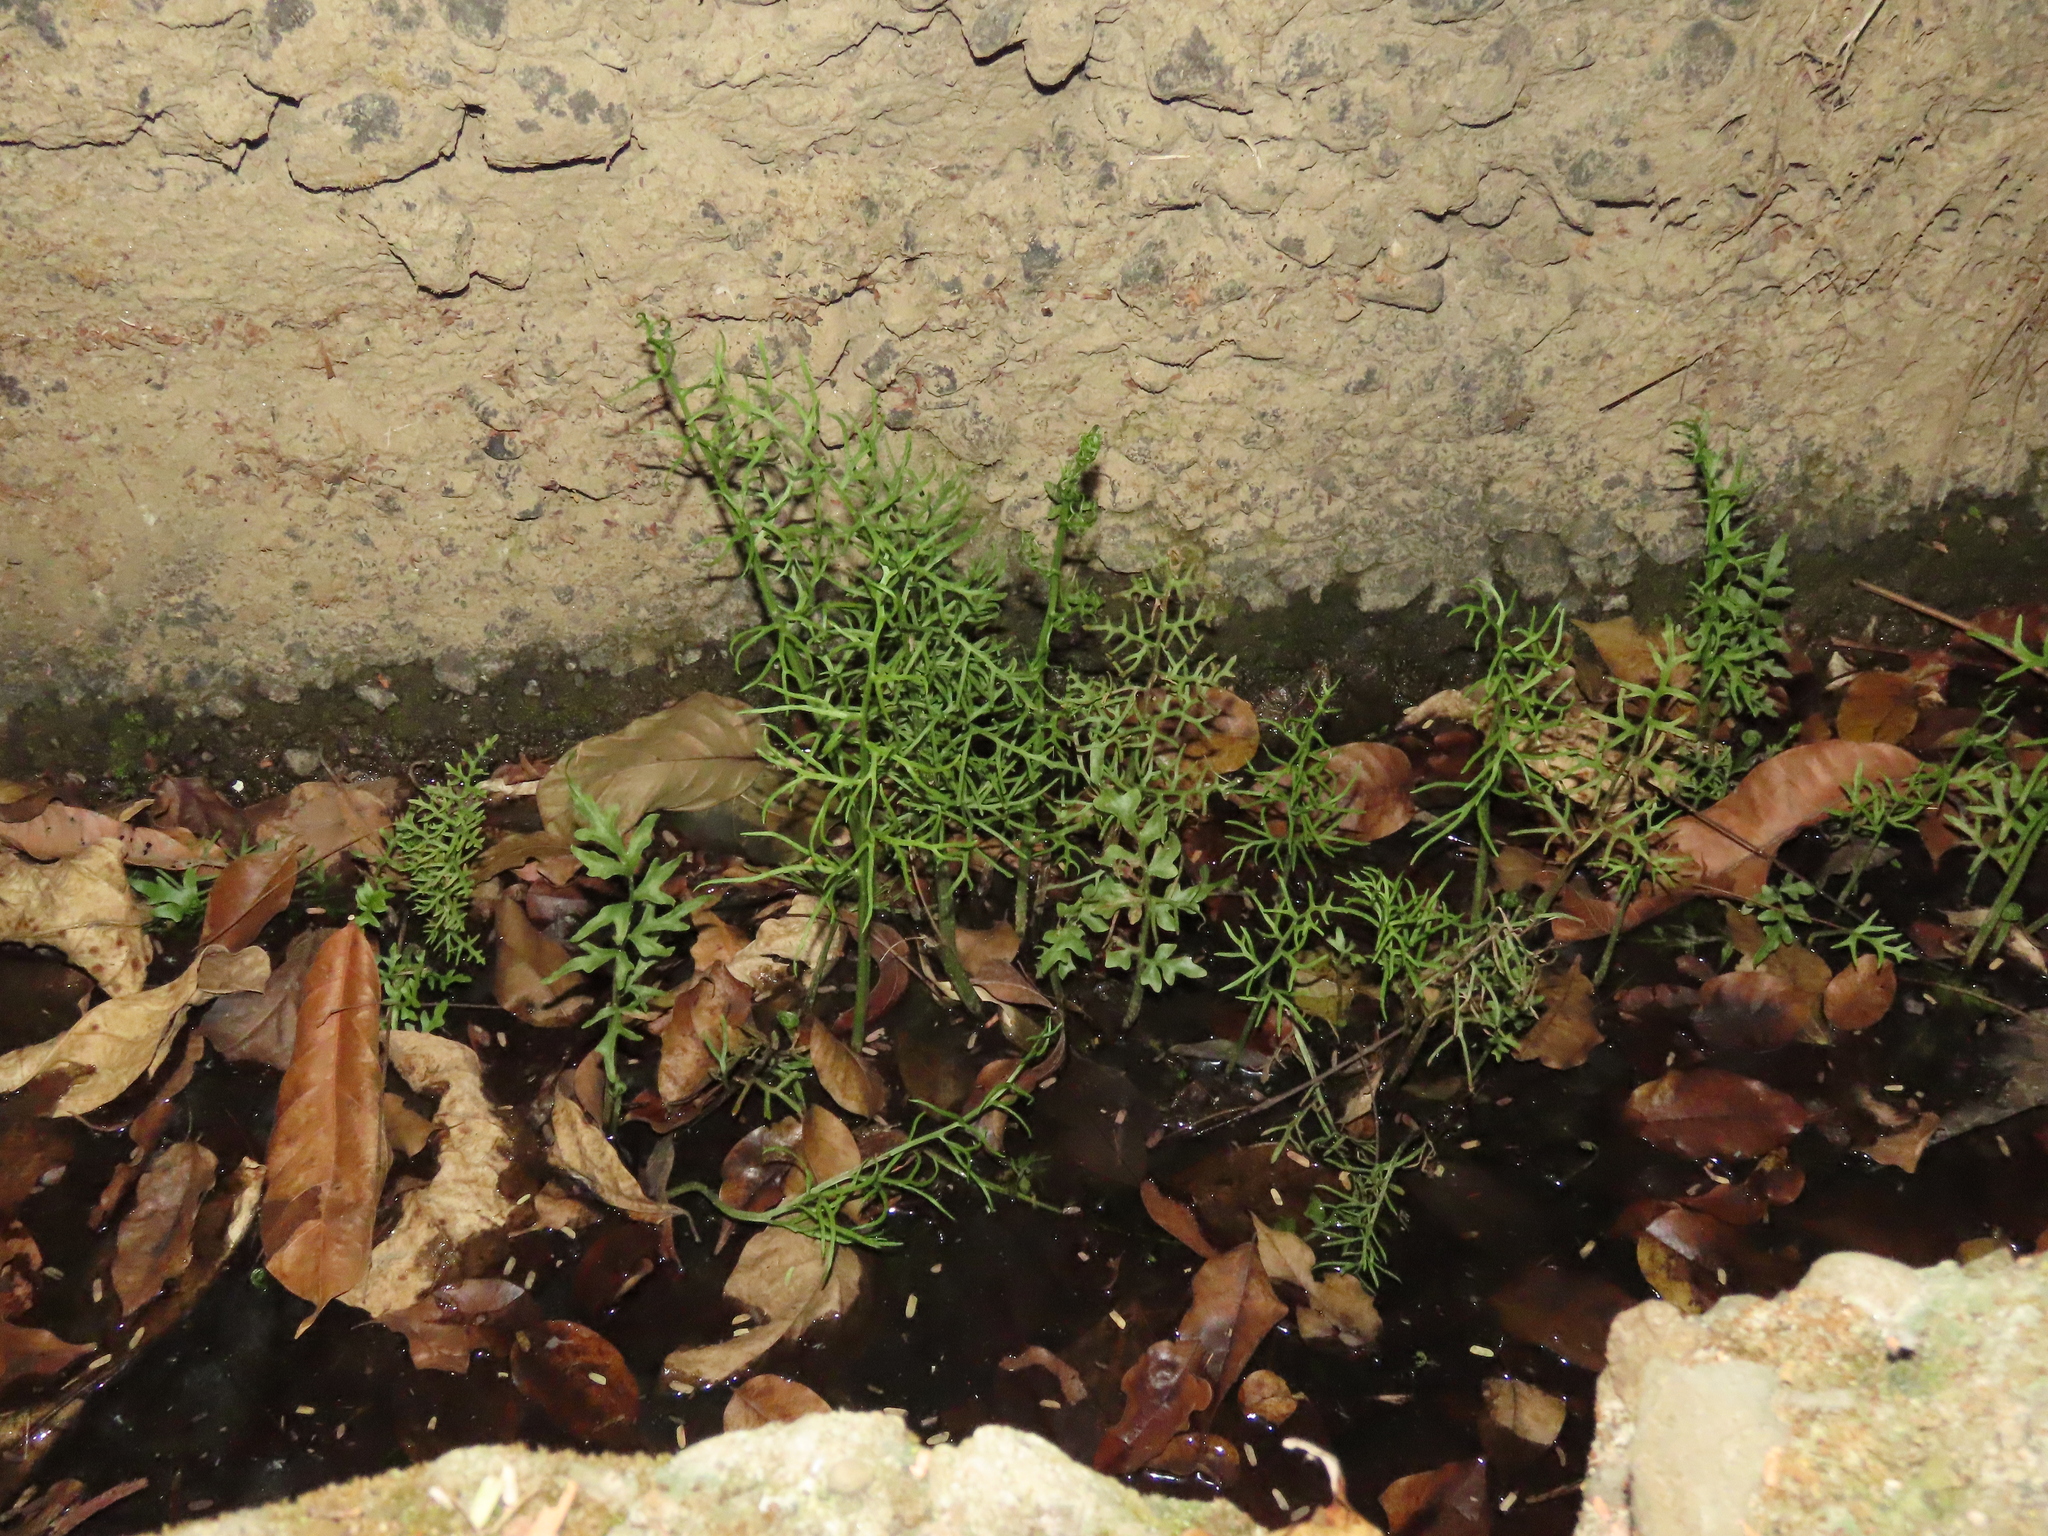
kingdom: Plantae
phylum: Tracheophyta
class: Polypodiopsida
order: Polypodiales
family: Pteridaceae
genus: Ceratopteris
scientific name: Ceratopteris thalictroides
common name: Water fern
